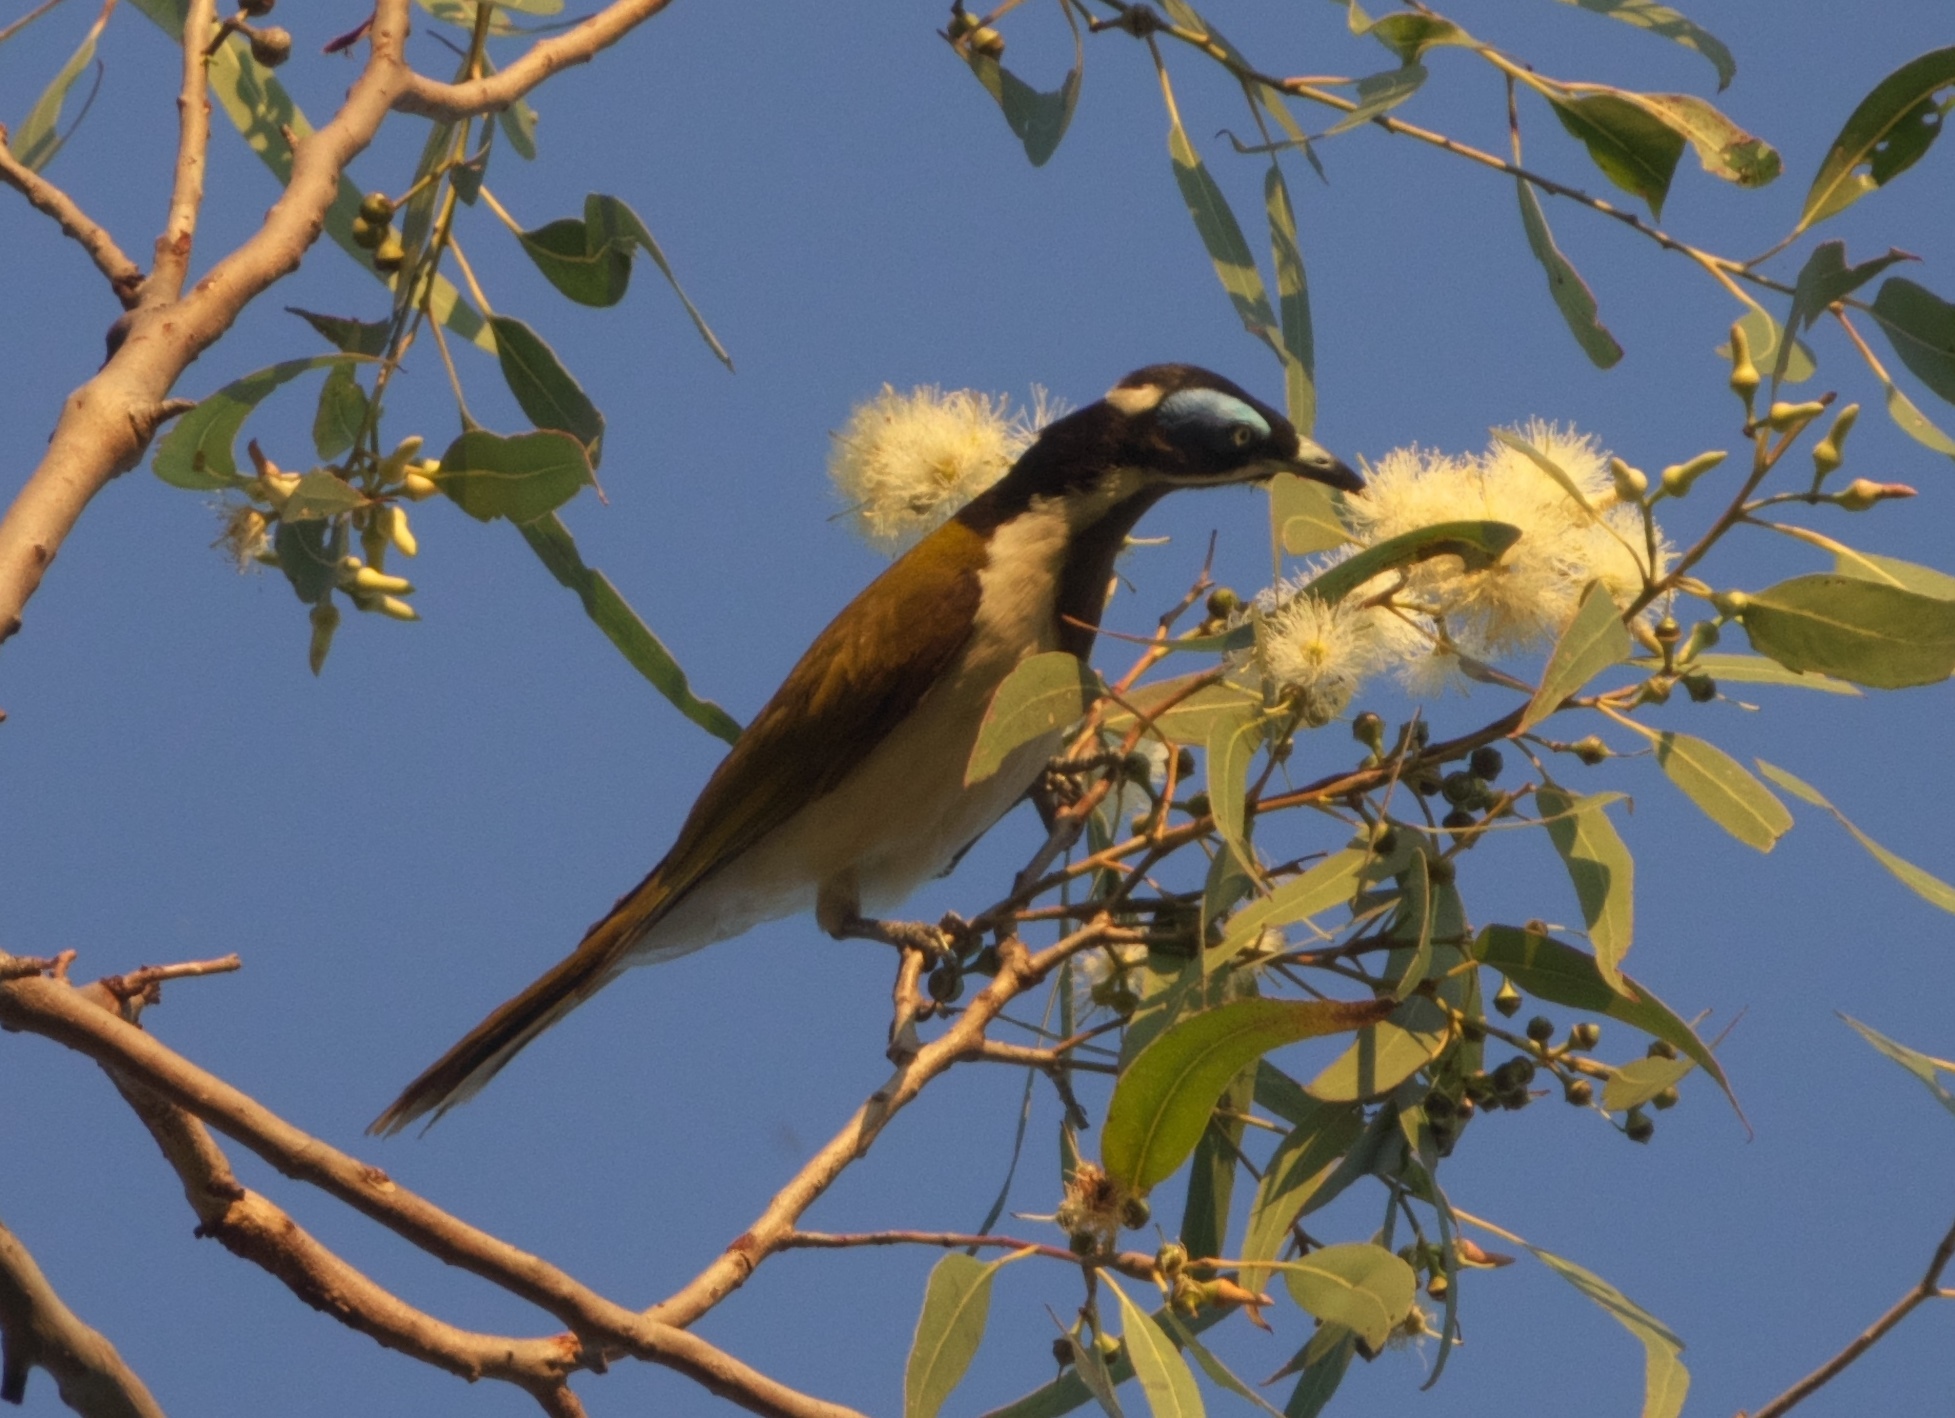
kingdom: Animalia
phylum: Chordata
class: Aves
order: Passeriformes
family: Meliphagidae
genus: Entomyzon
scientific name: Entomyzon cyanotis
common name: Blue-faced honeyeater
